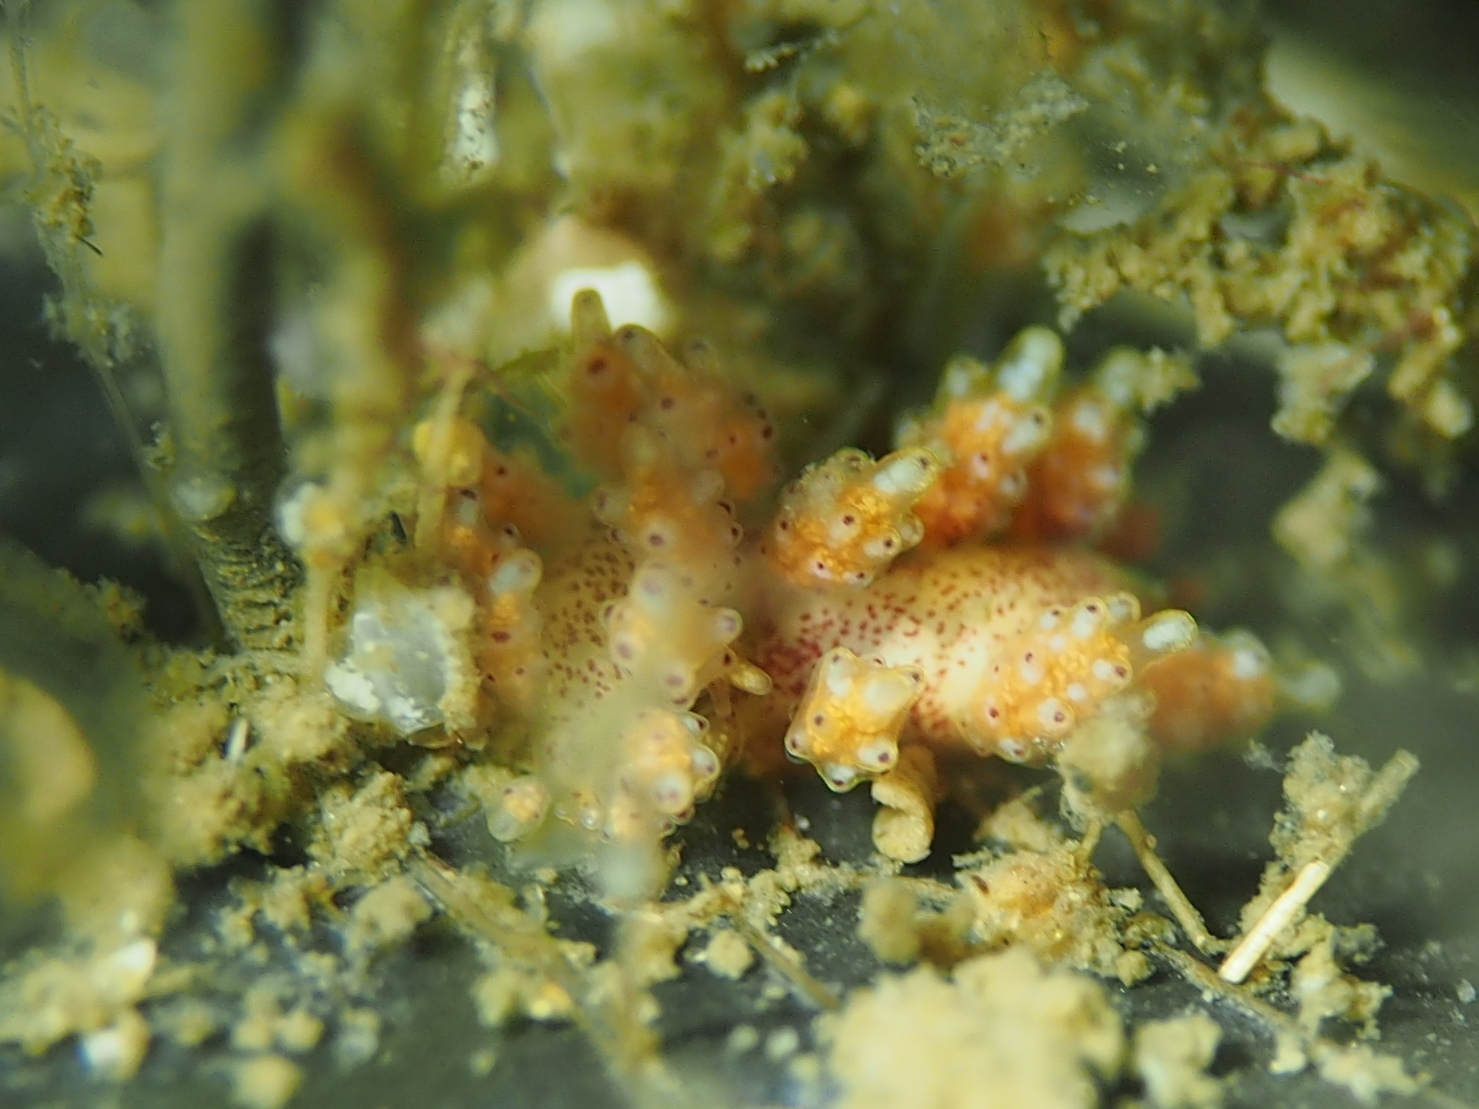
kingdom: Animalia
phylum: Mollusca
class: Gastropoda
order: Nudibranchia
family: Dotidae
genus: Doto
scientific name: Doto maculata
